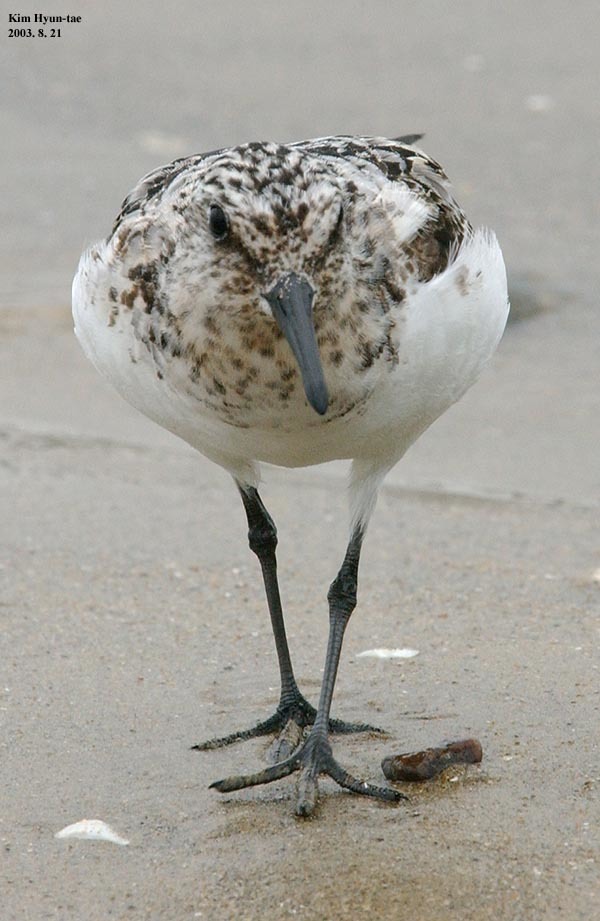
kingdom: Animalia
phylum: Chordata
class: Aves
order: Charadriiformes
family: Scolopacidae
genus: Calidris
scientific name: Calidris alba
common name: Sanderling
